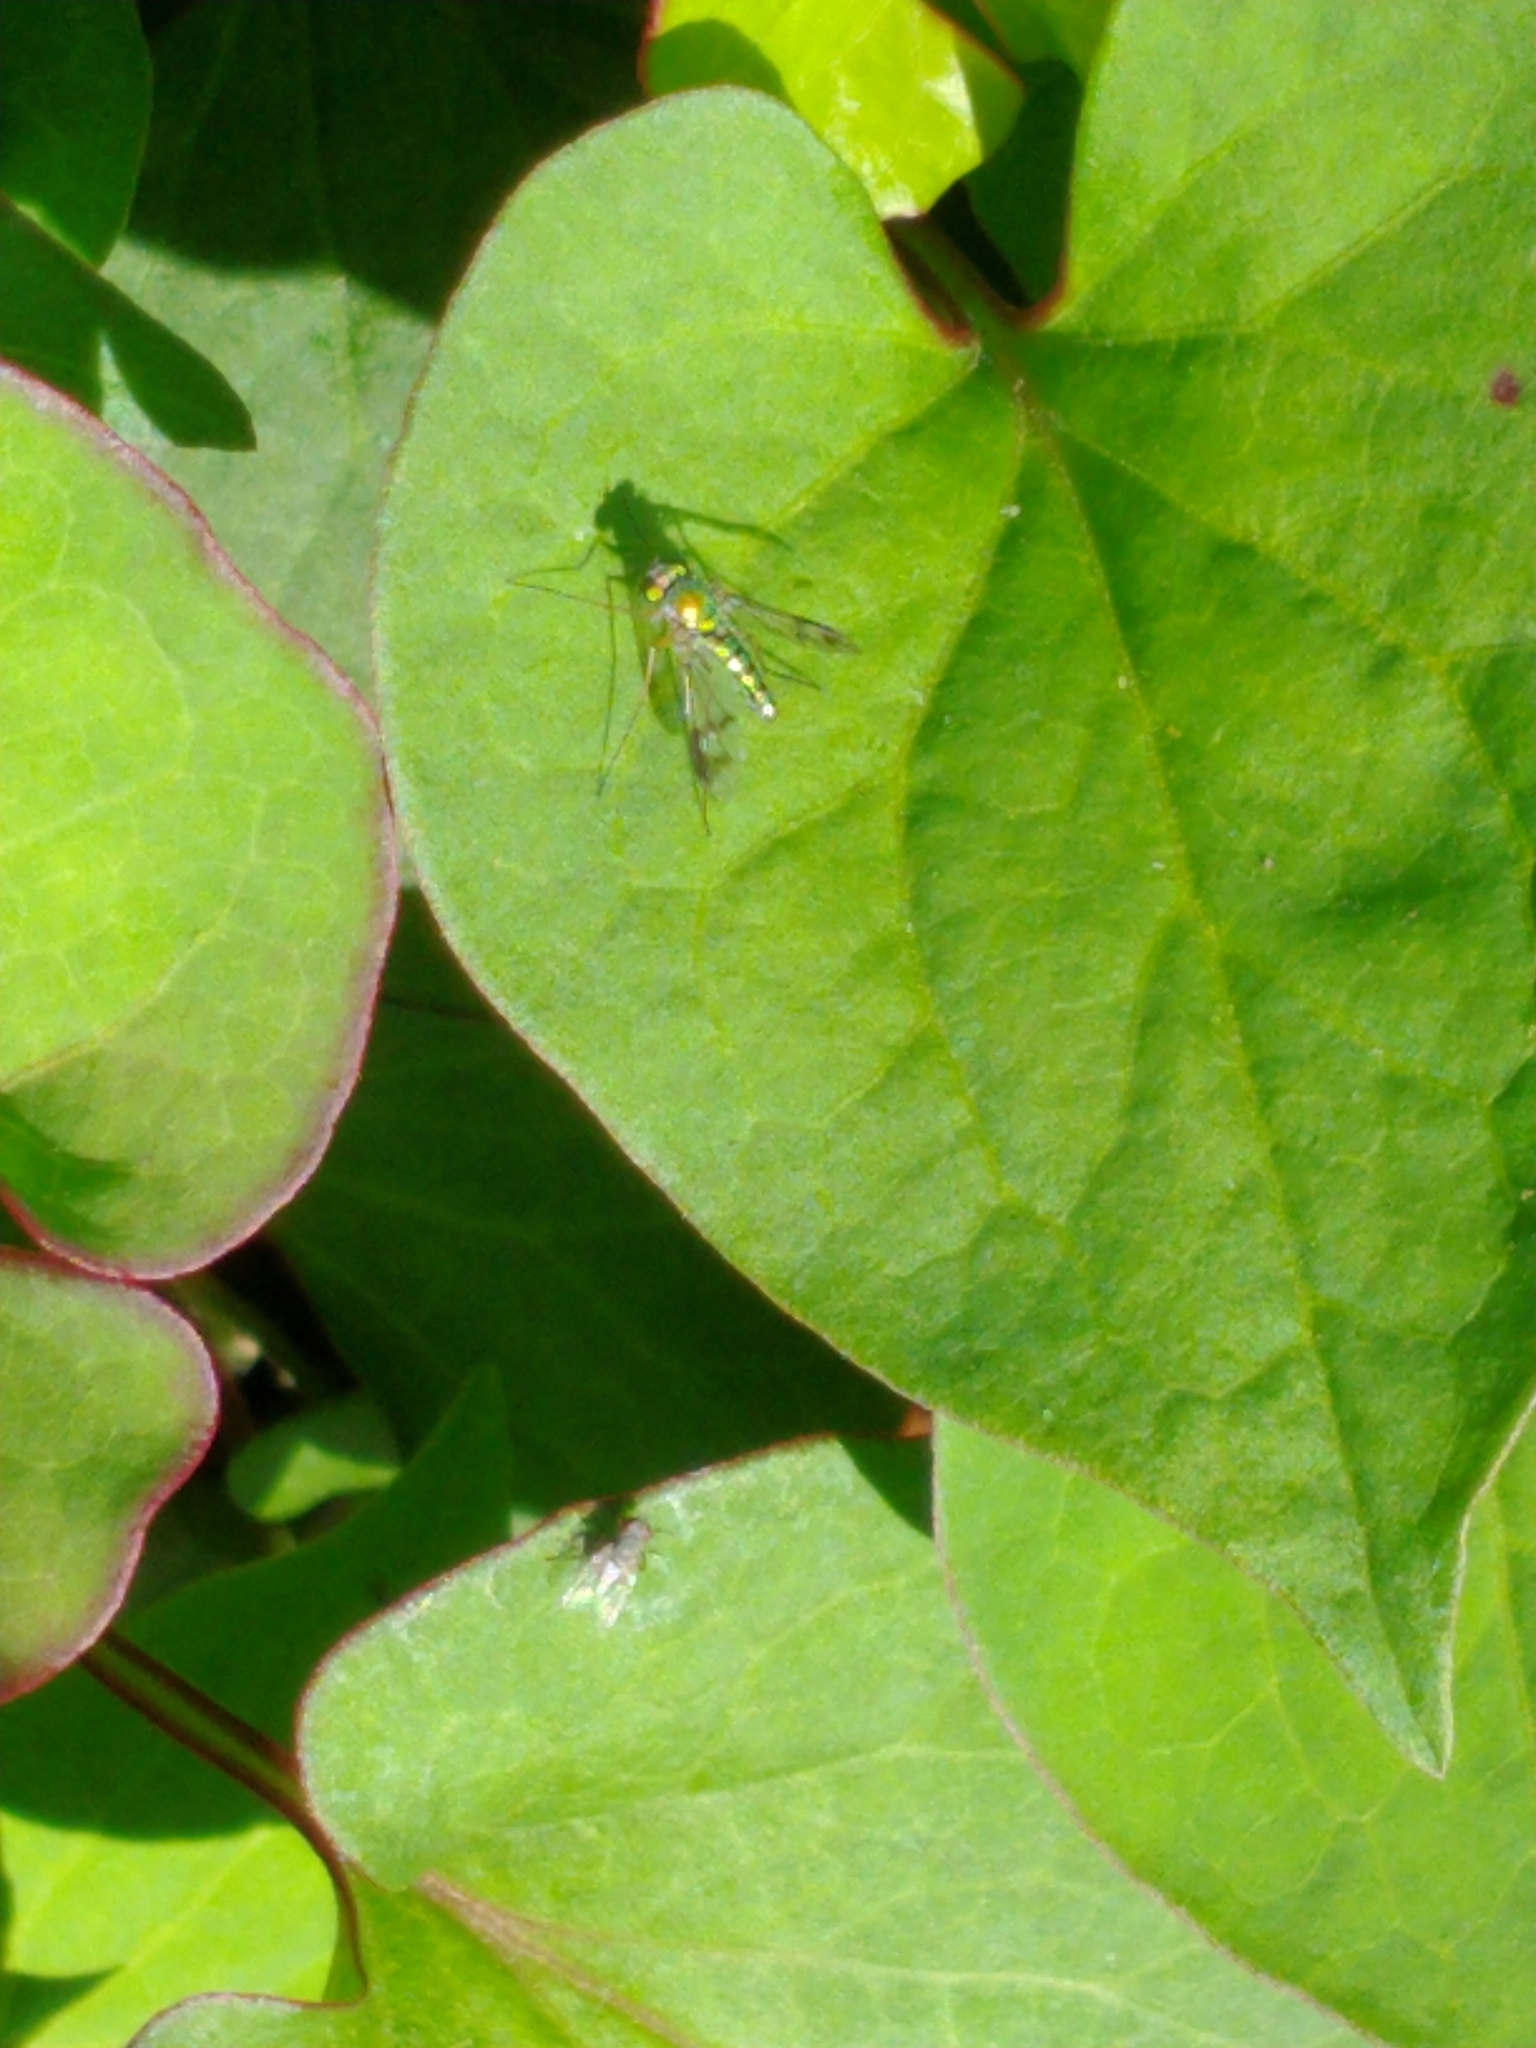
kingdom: Animalia
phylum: Arthropoda
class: Insecta
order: Diptera
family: Dolichopodidae
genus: Condylostylus
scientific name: Condylostylus
